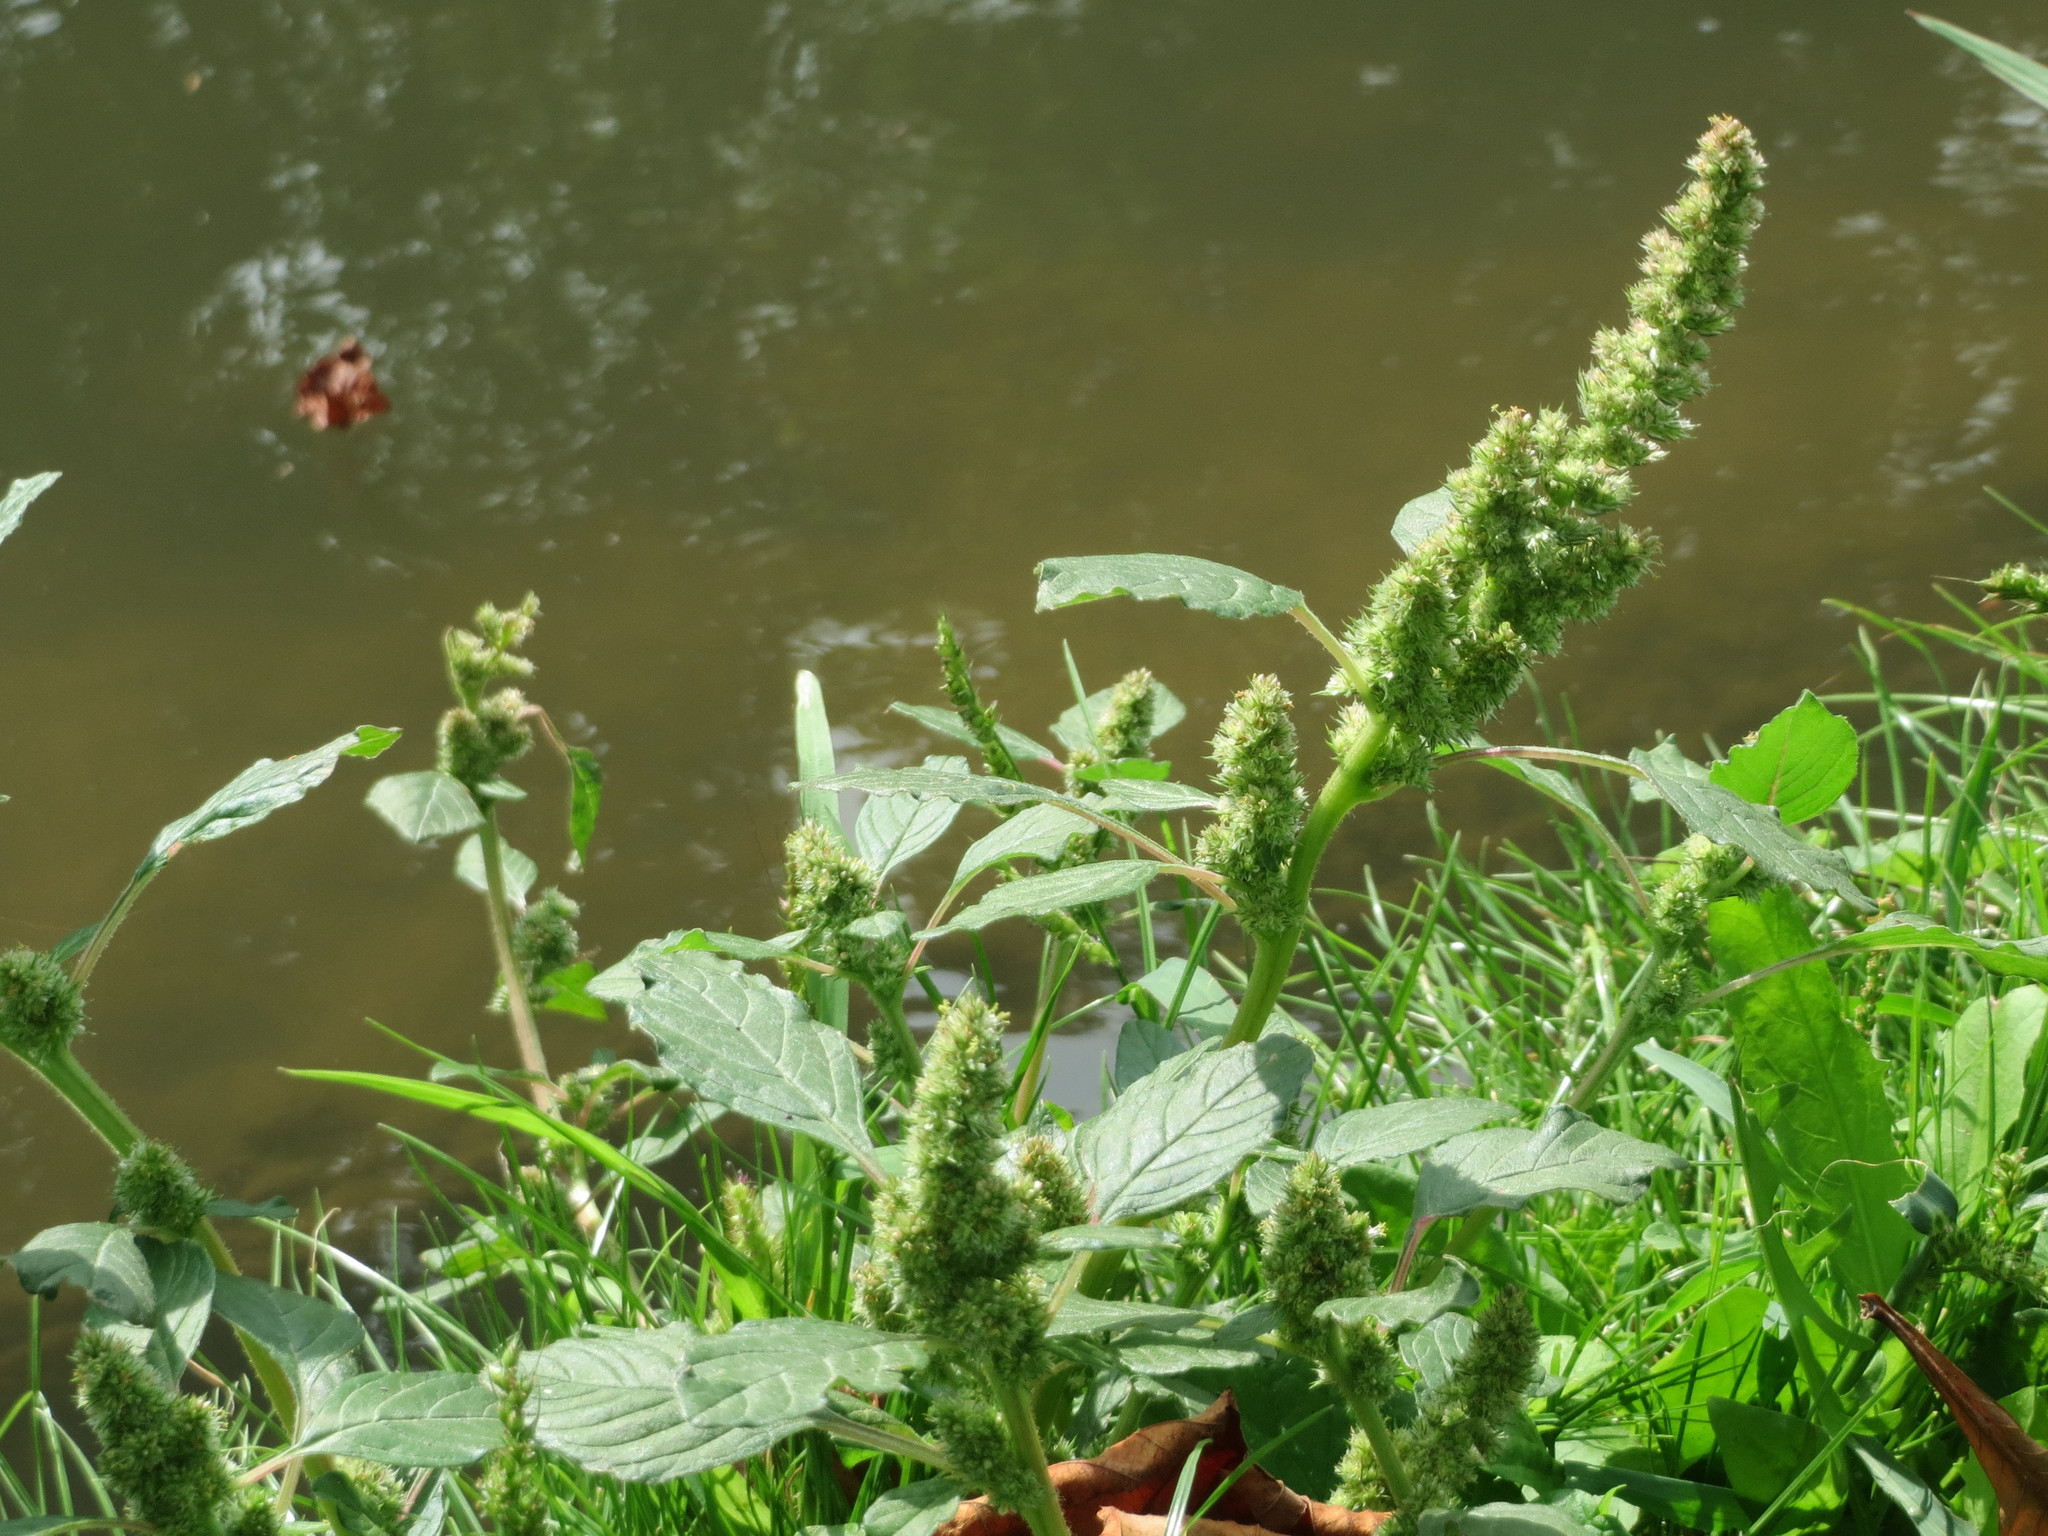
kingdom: Plantae
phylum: Tracheophyta
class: Magnoliopsida
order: Caryophyllales
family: Amaranthaceae
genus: Amaranthus
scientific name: Amaranthus retroflexus
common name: Redroot amaranth
